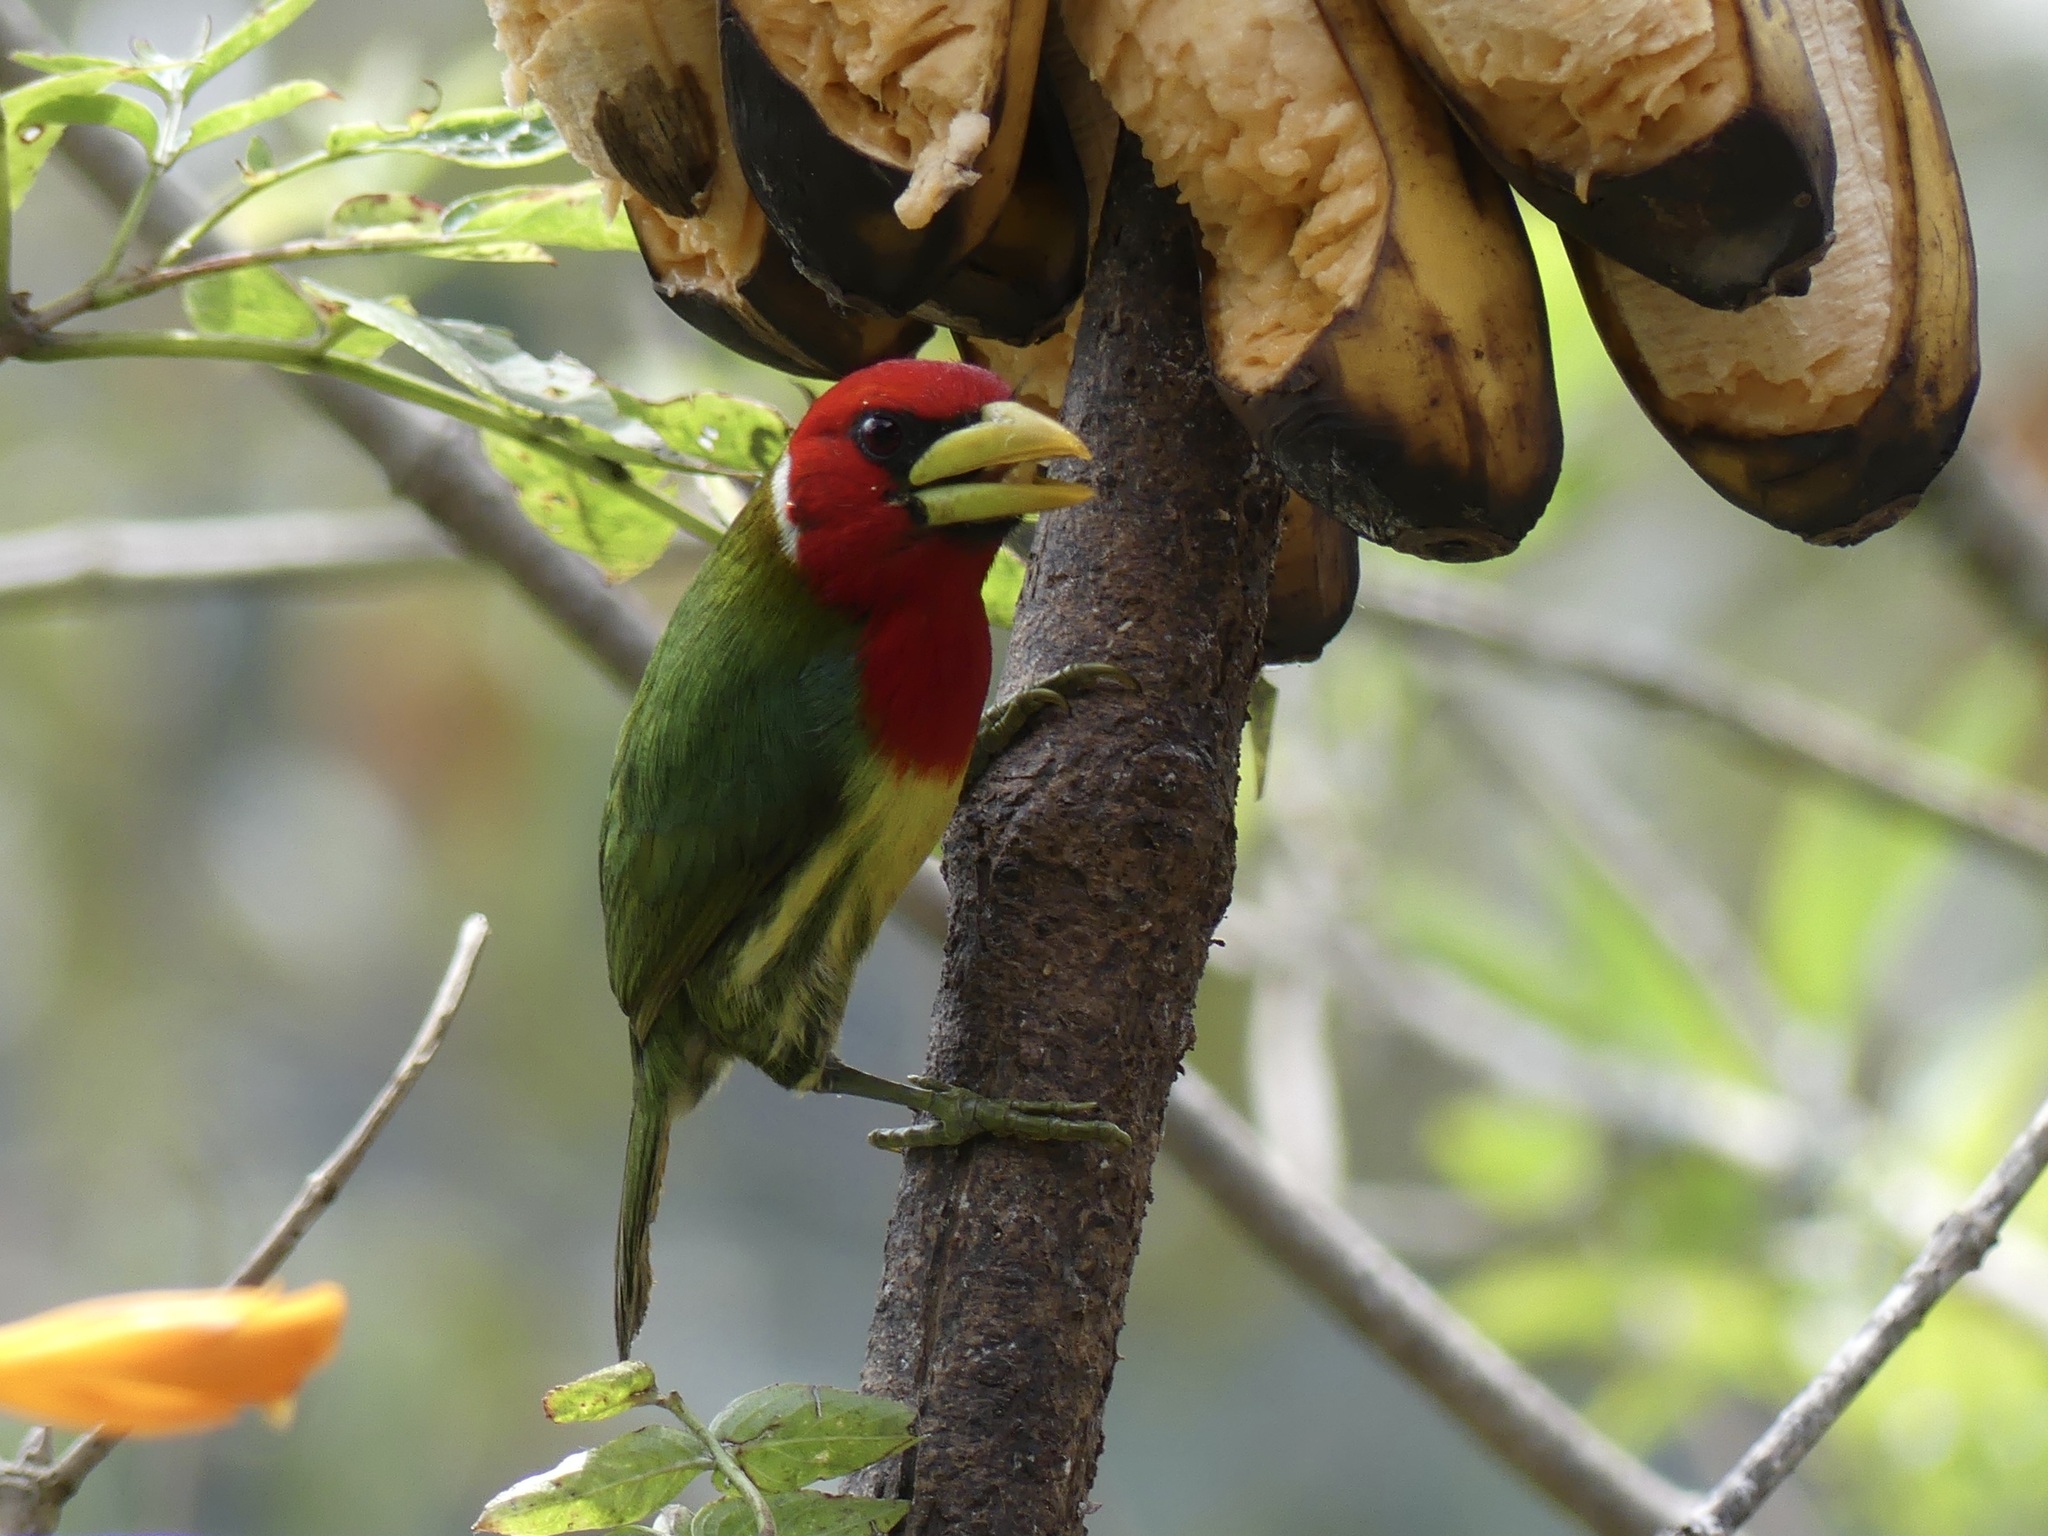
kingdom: Animalia
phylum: Chordata
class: Aves
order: Piciformes
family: Capitonidae
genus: Eubucco
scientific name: Eubucco bourcierii
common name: Red-headed barbet
